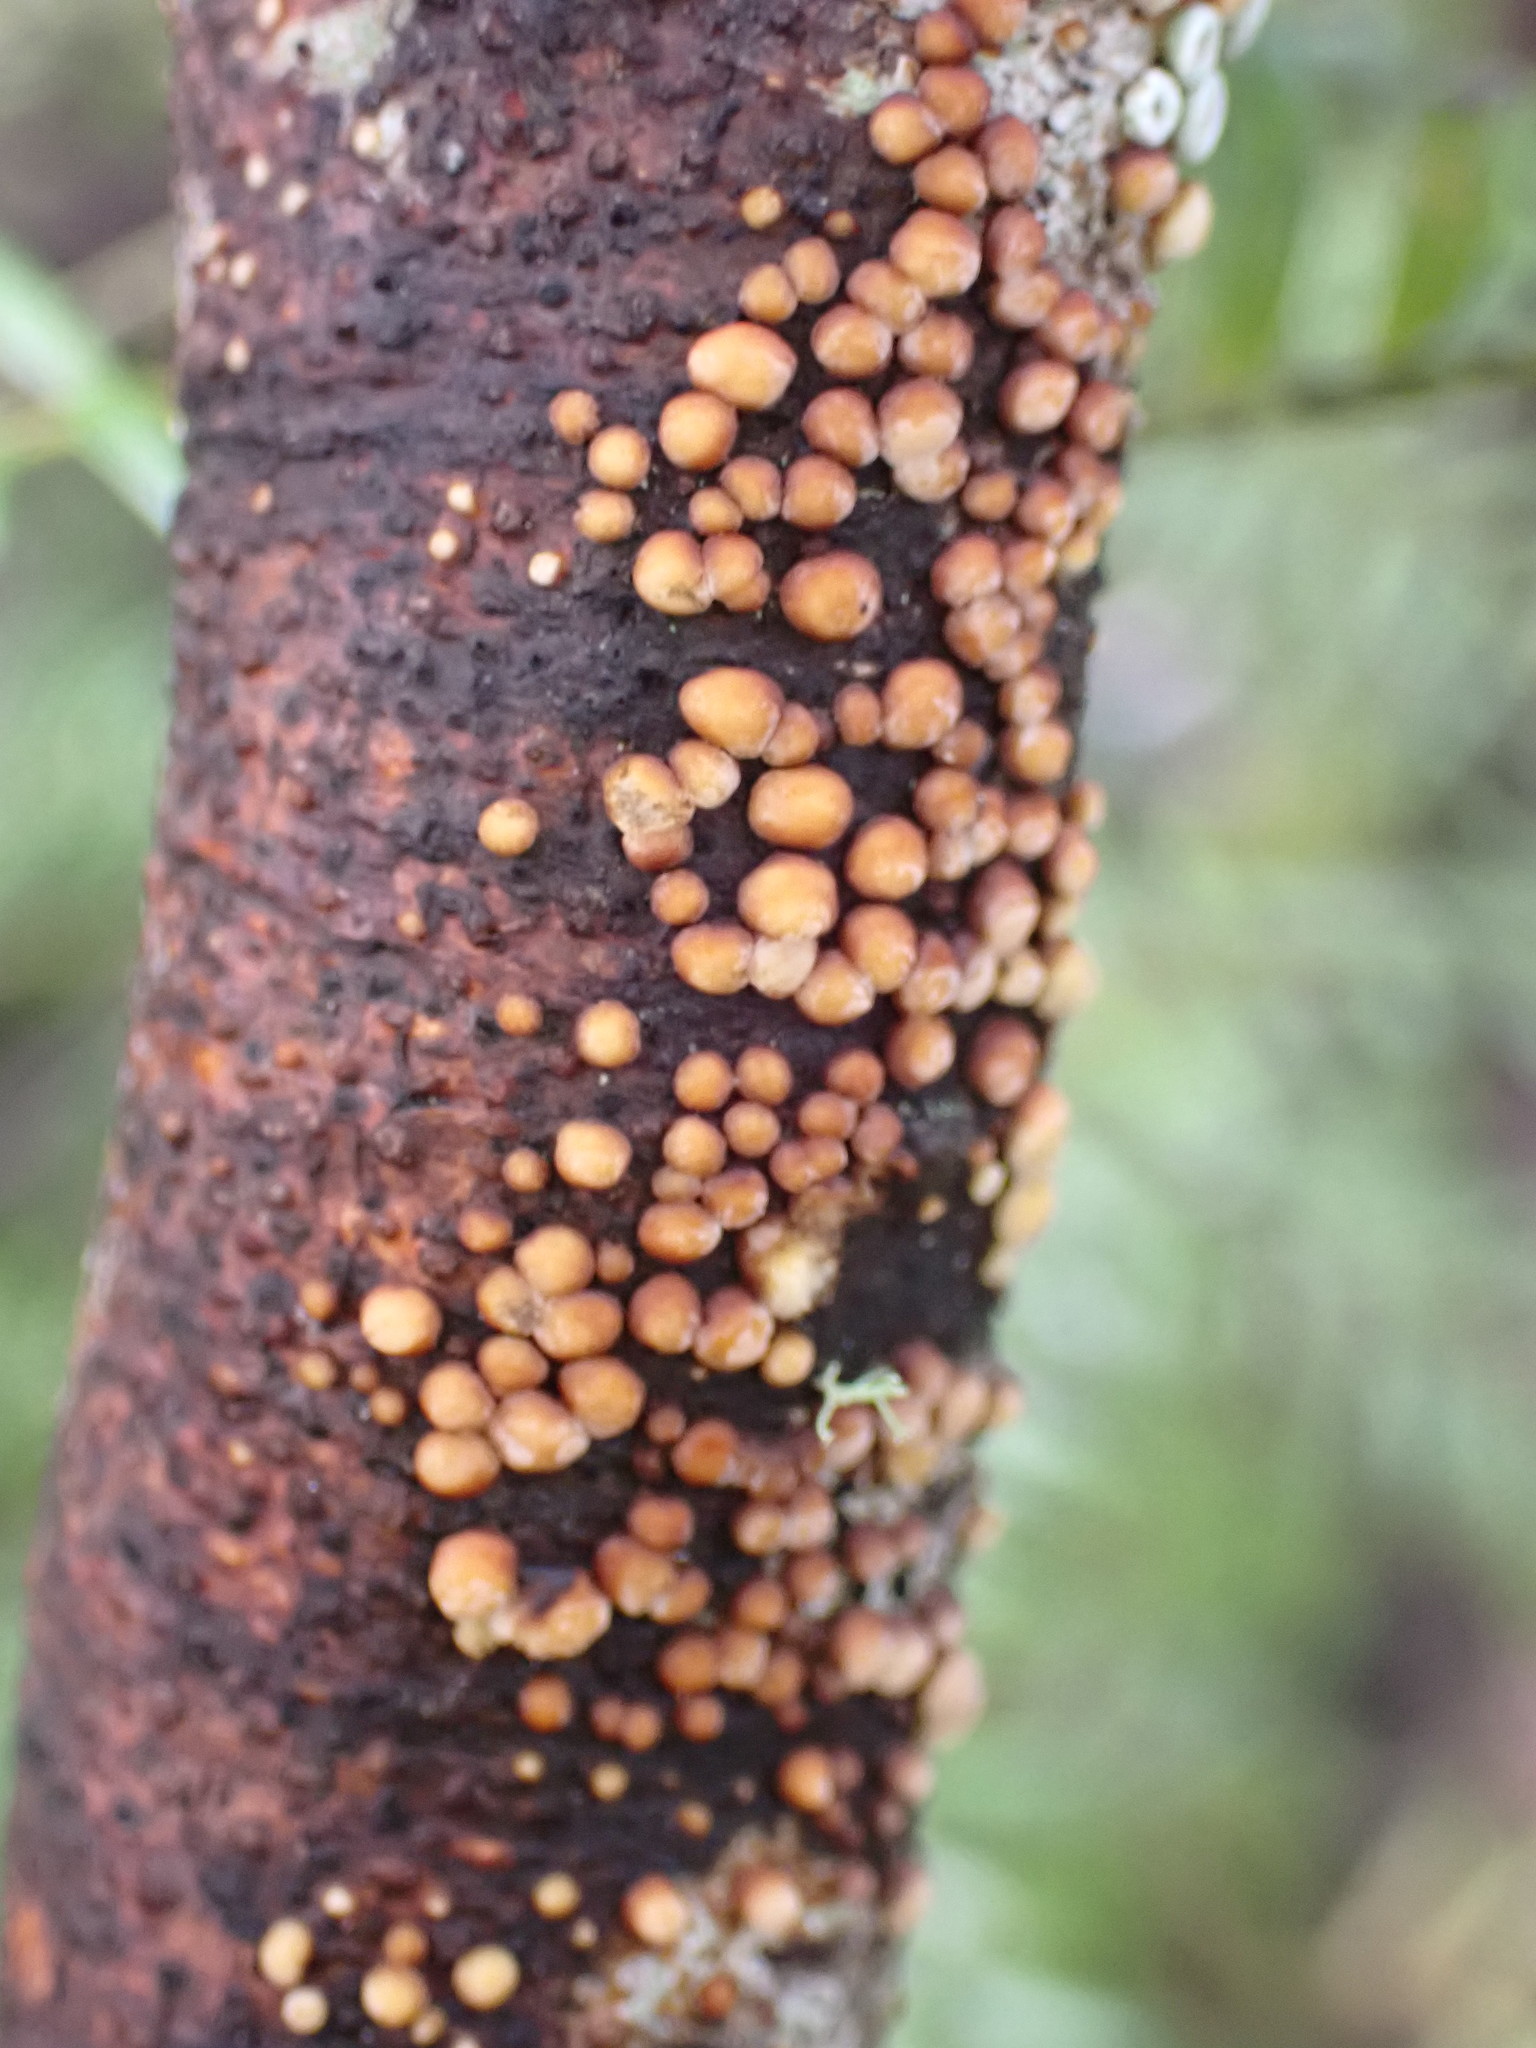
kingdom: Fungi
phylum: Basidiomycota
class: Agaricomycetes
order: Russulales
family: Stereaceae
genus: Aleurodiscus
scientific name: Aleurodiscus berggrenii
